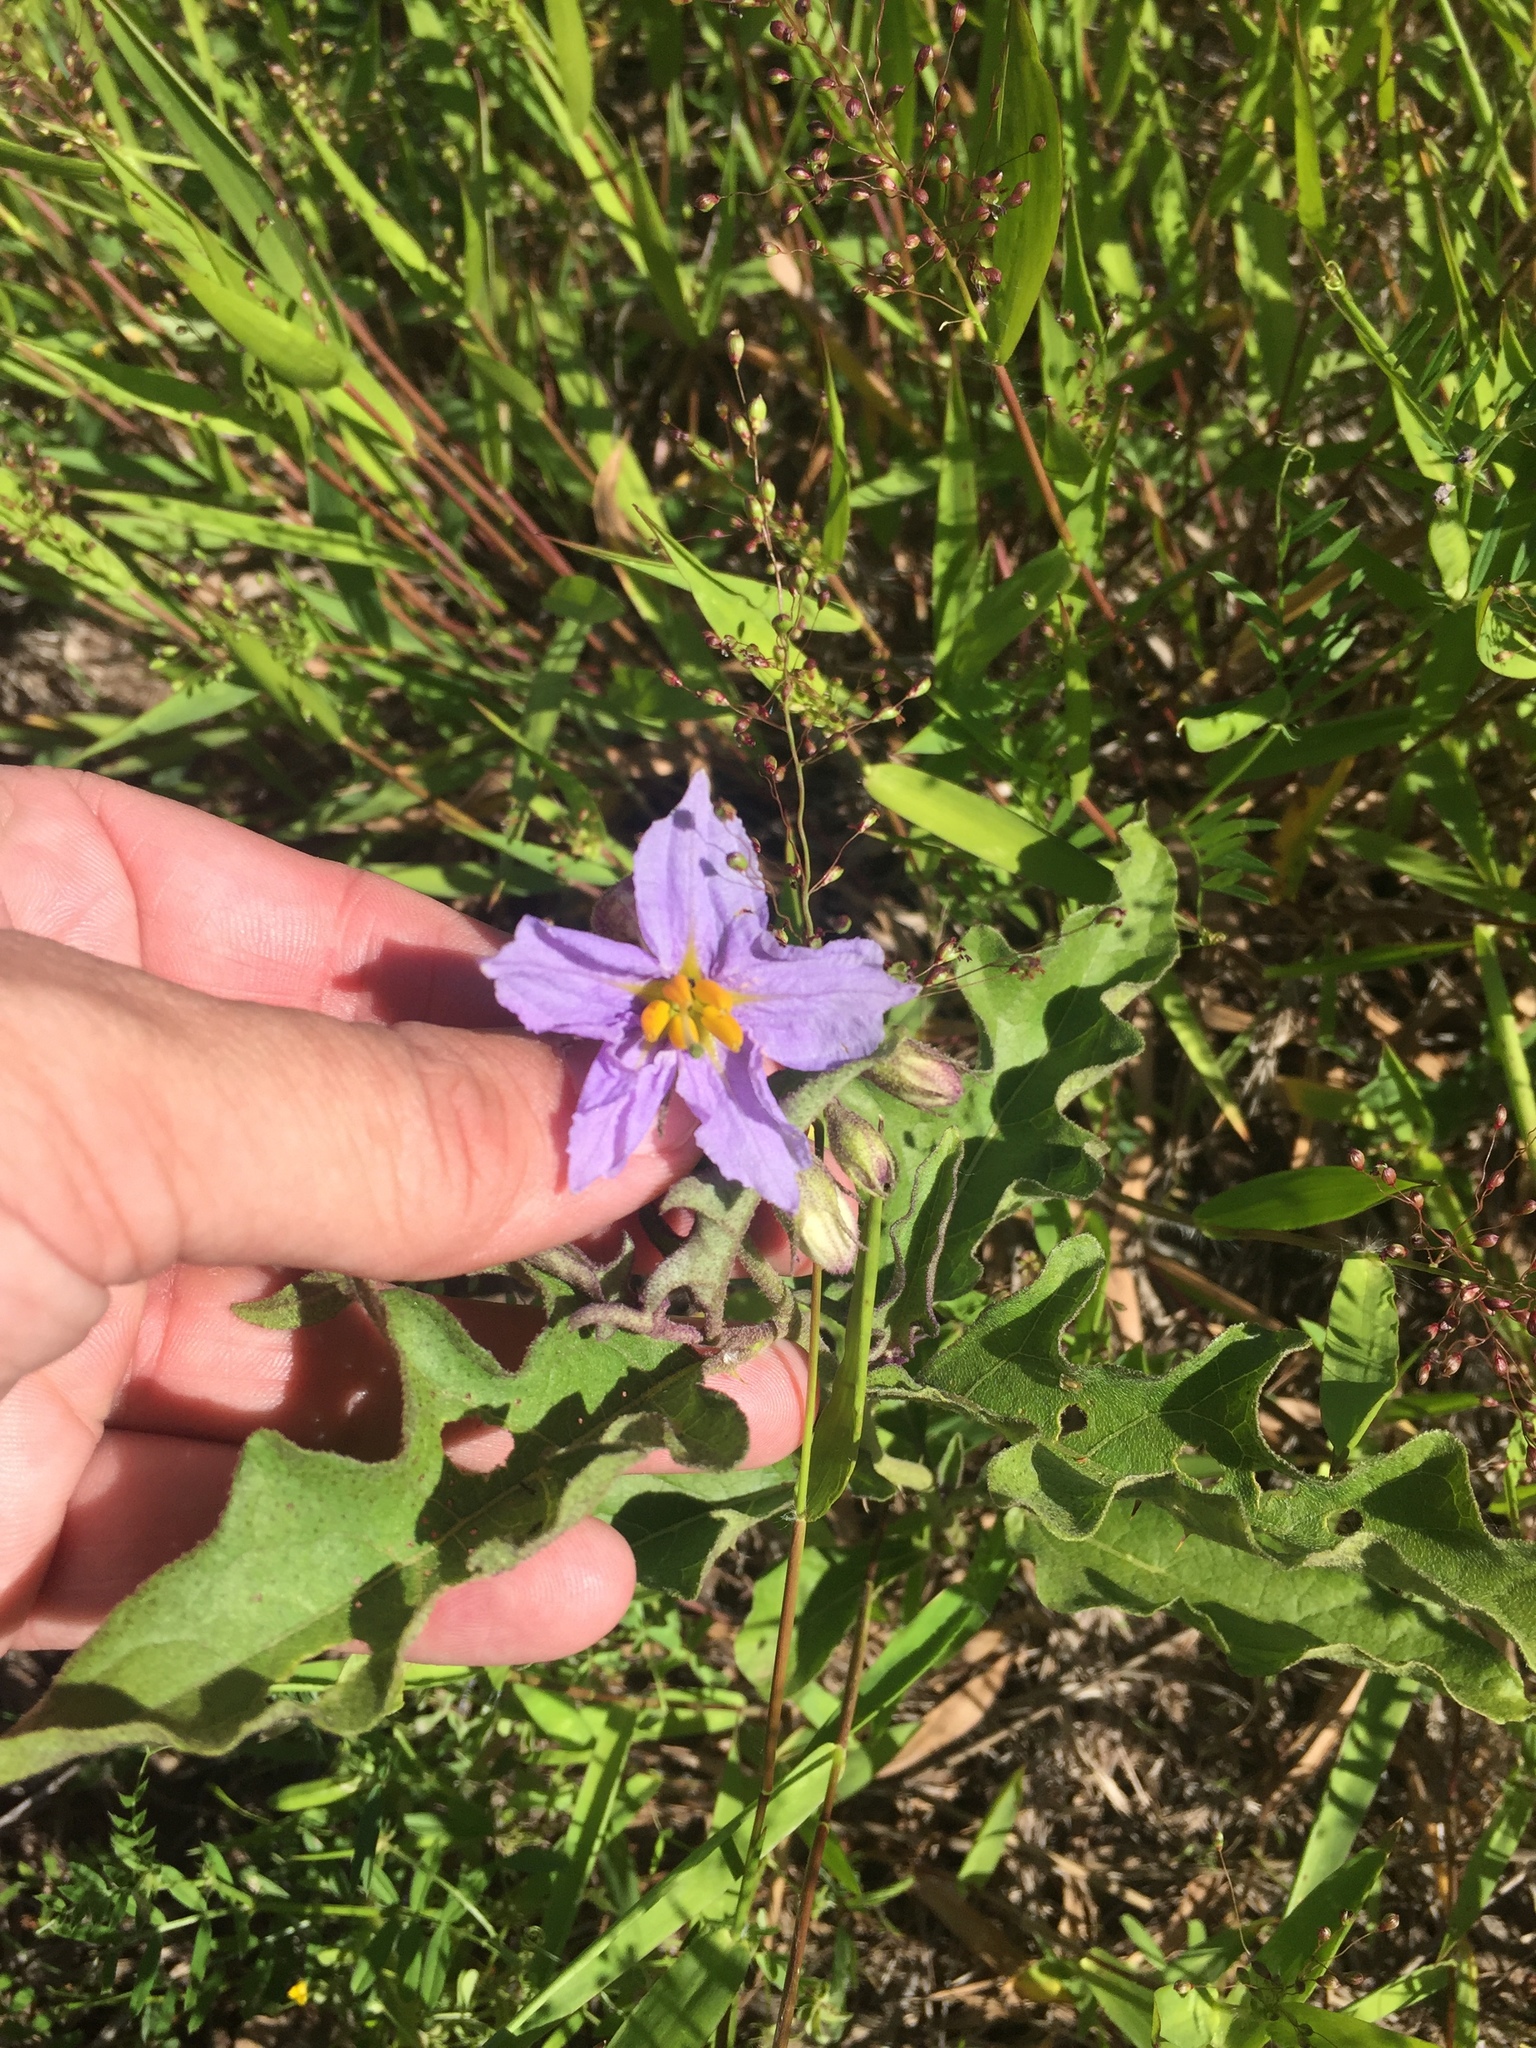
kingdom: Plantae
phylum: Tracheophyta
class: Magnoliopsida
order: Solanales
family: Solanaceae
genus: Solanum
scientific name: Solanum dimidiatum
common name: Carolina horse-nettle
